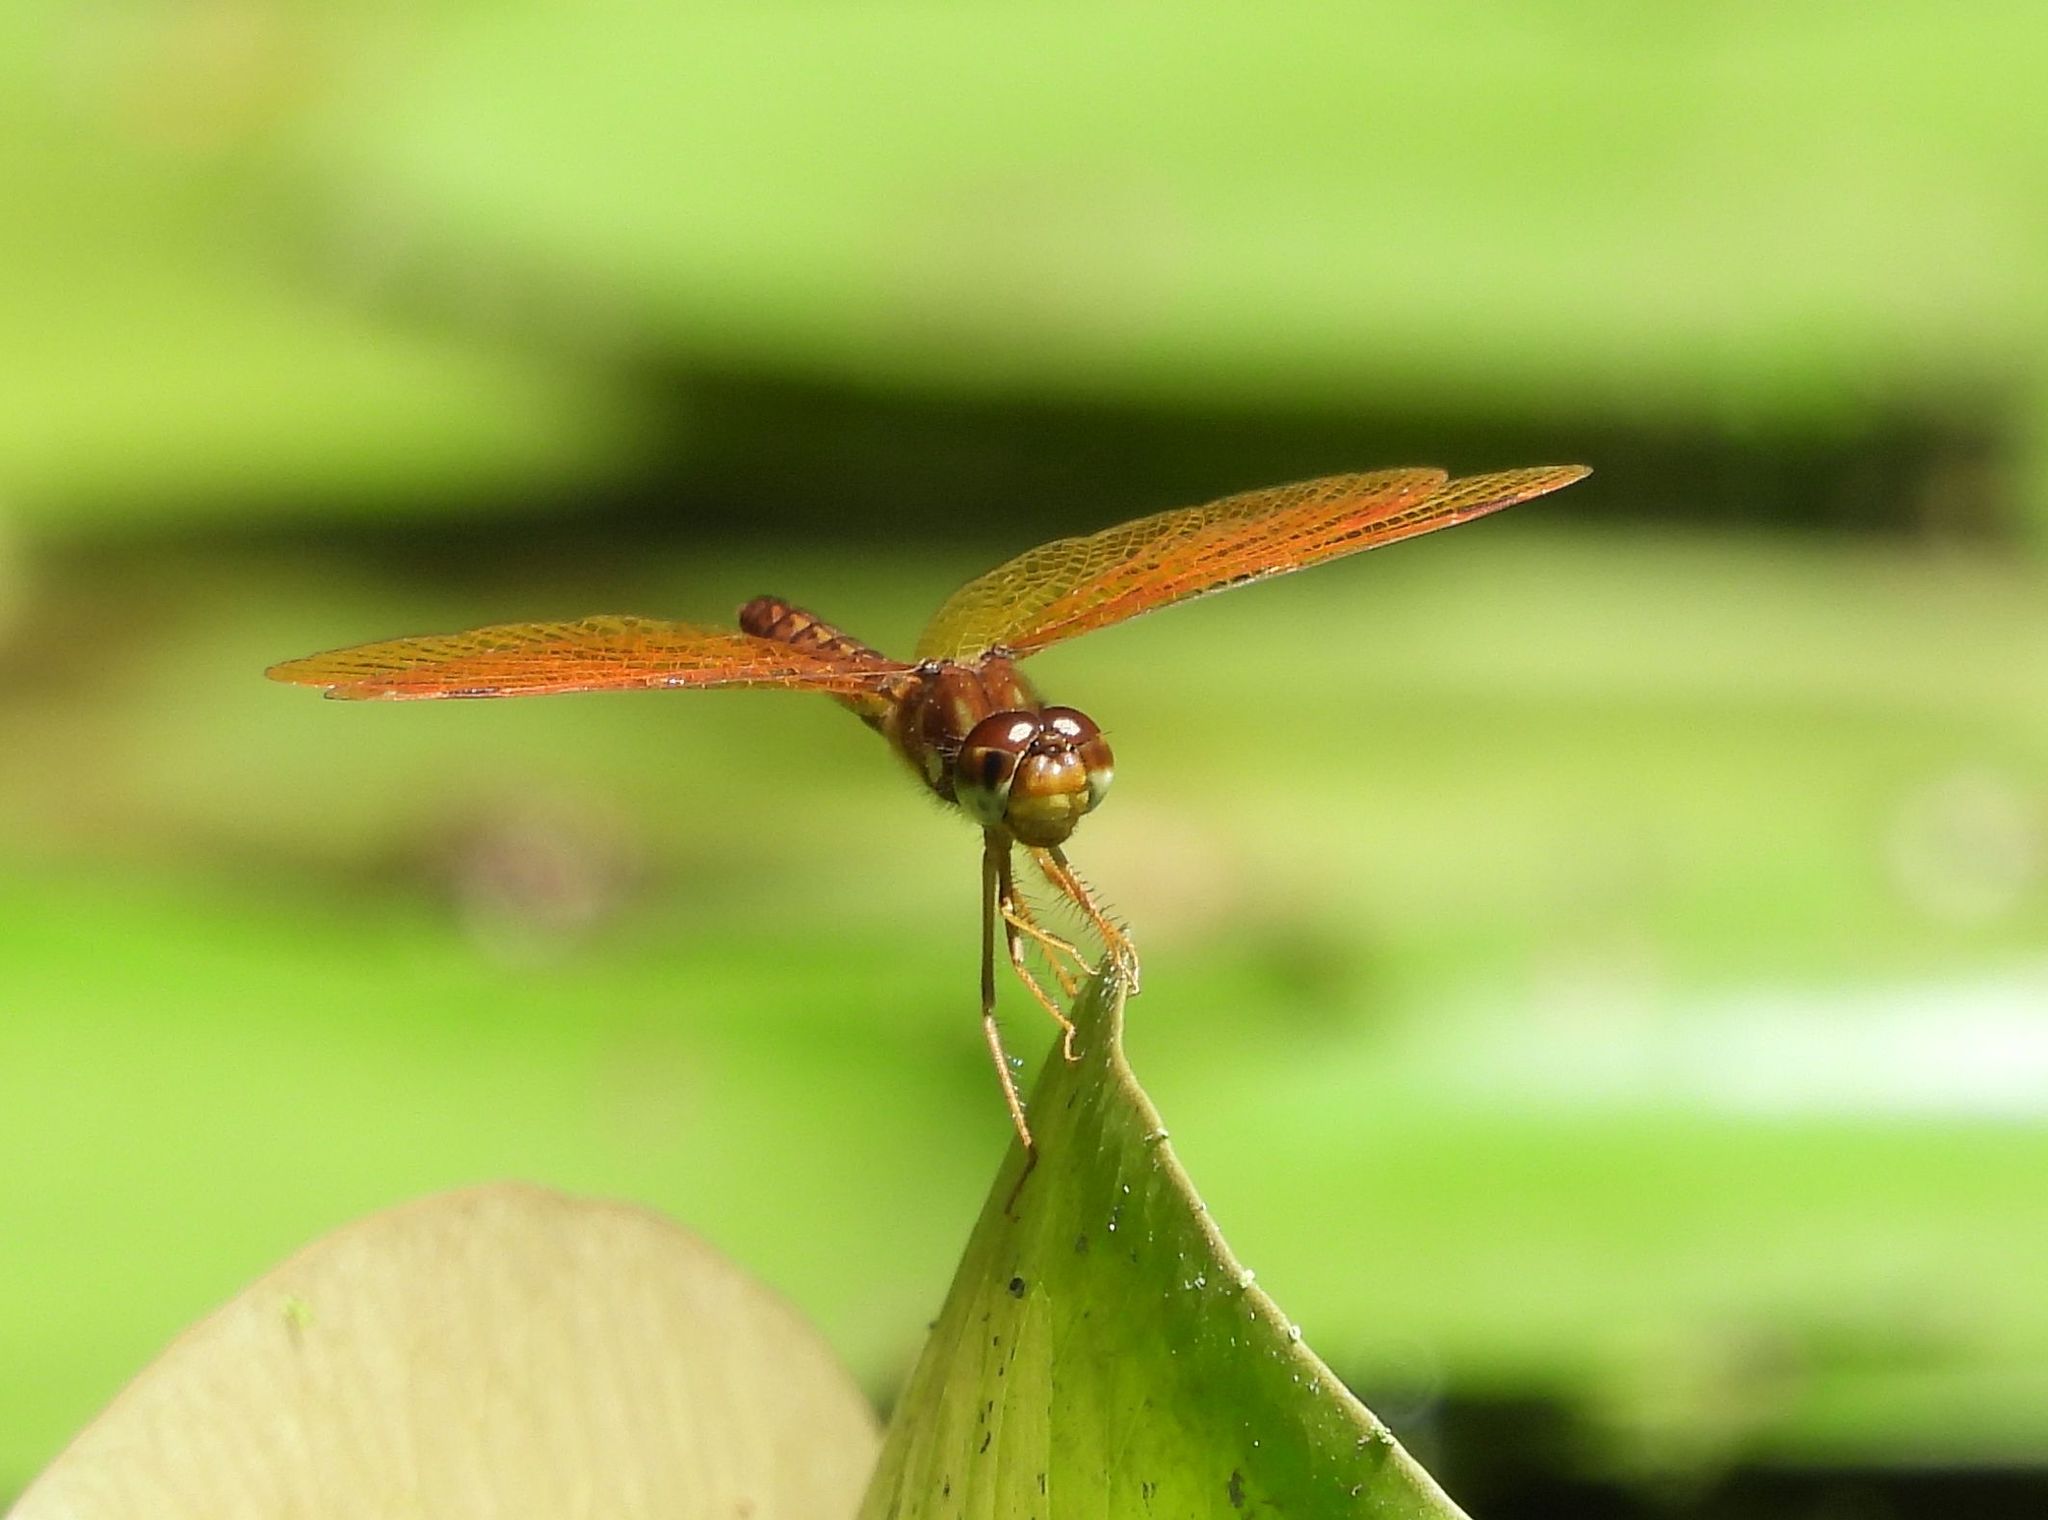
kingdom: Animalia
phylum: Arthropoda
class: Insecta
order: Odonata
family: Libellulidae
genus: Perithemis
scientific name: Perithemis tenera
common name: Eastern amberwing
